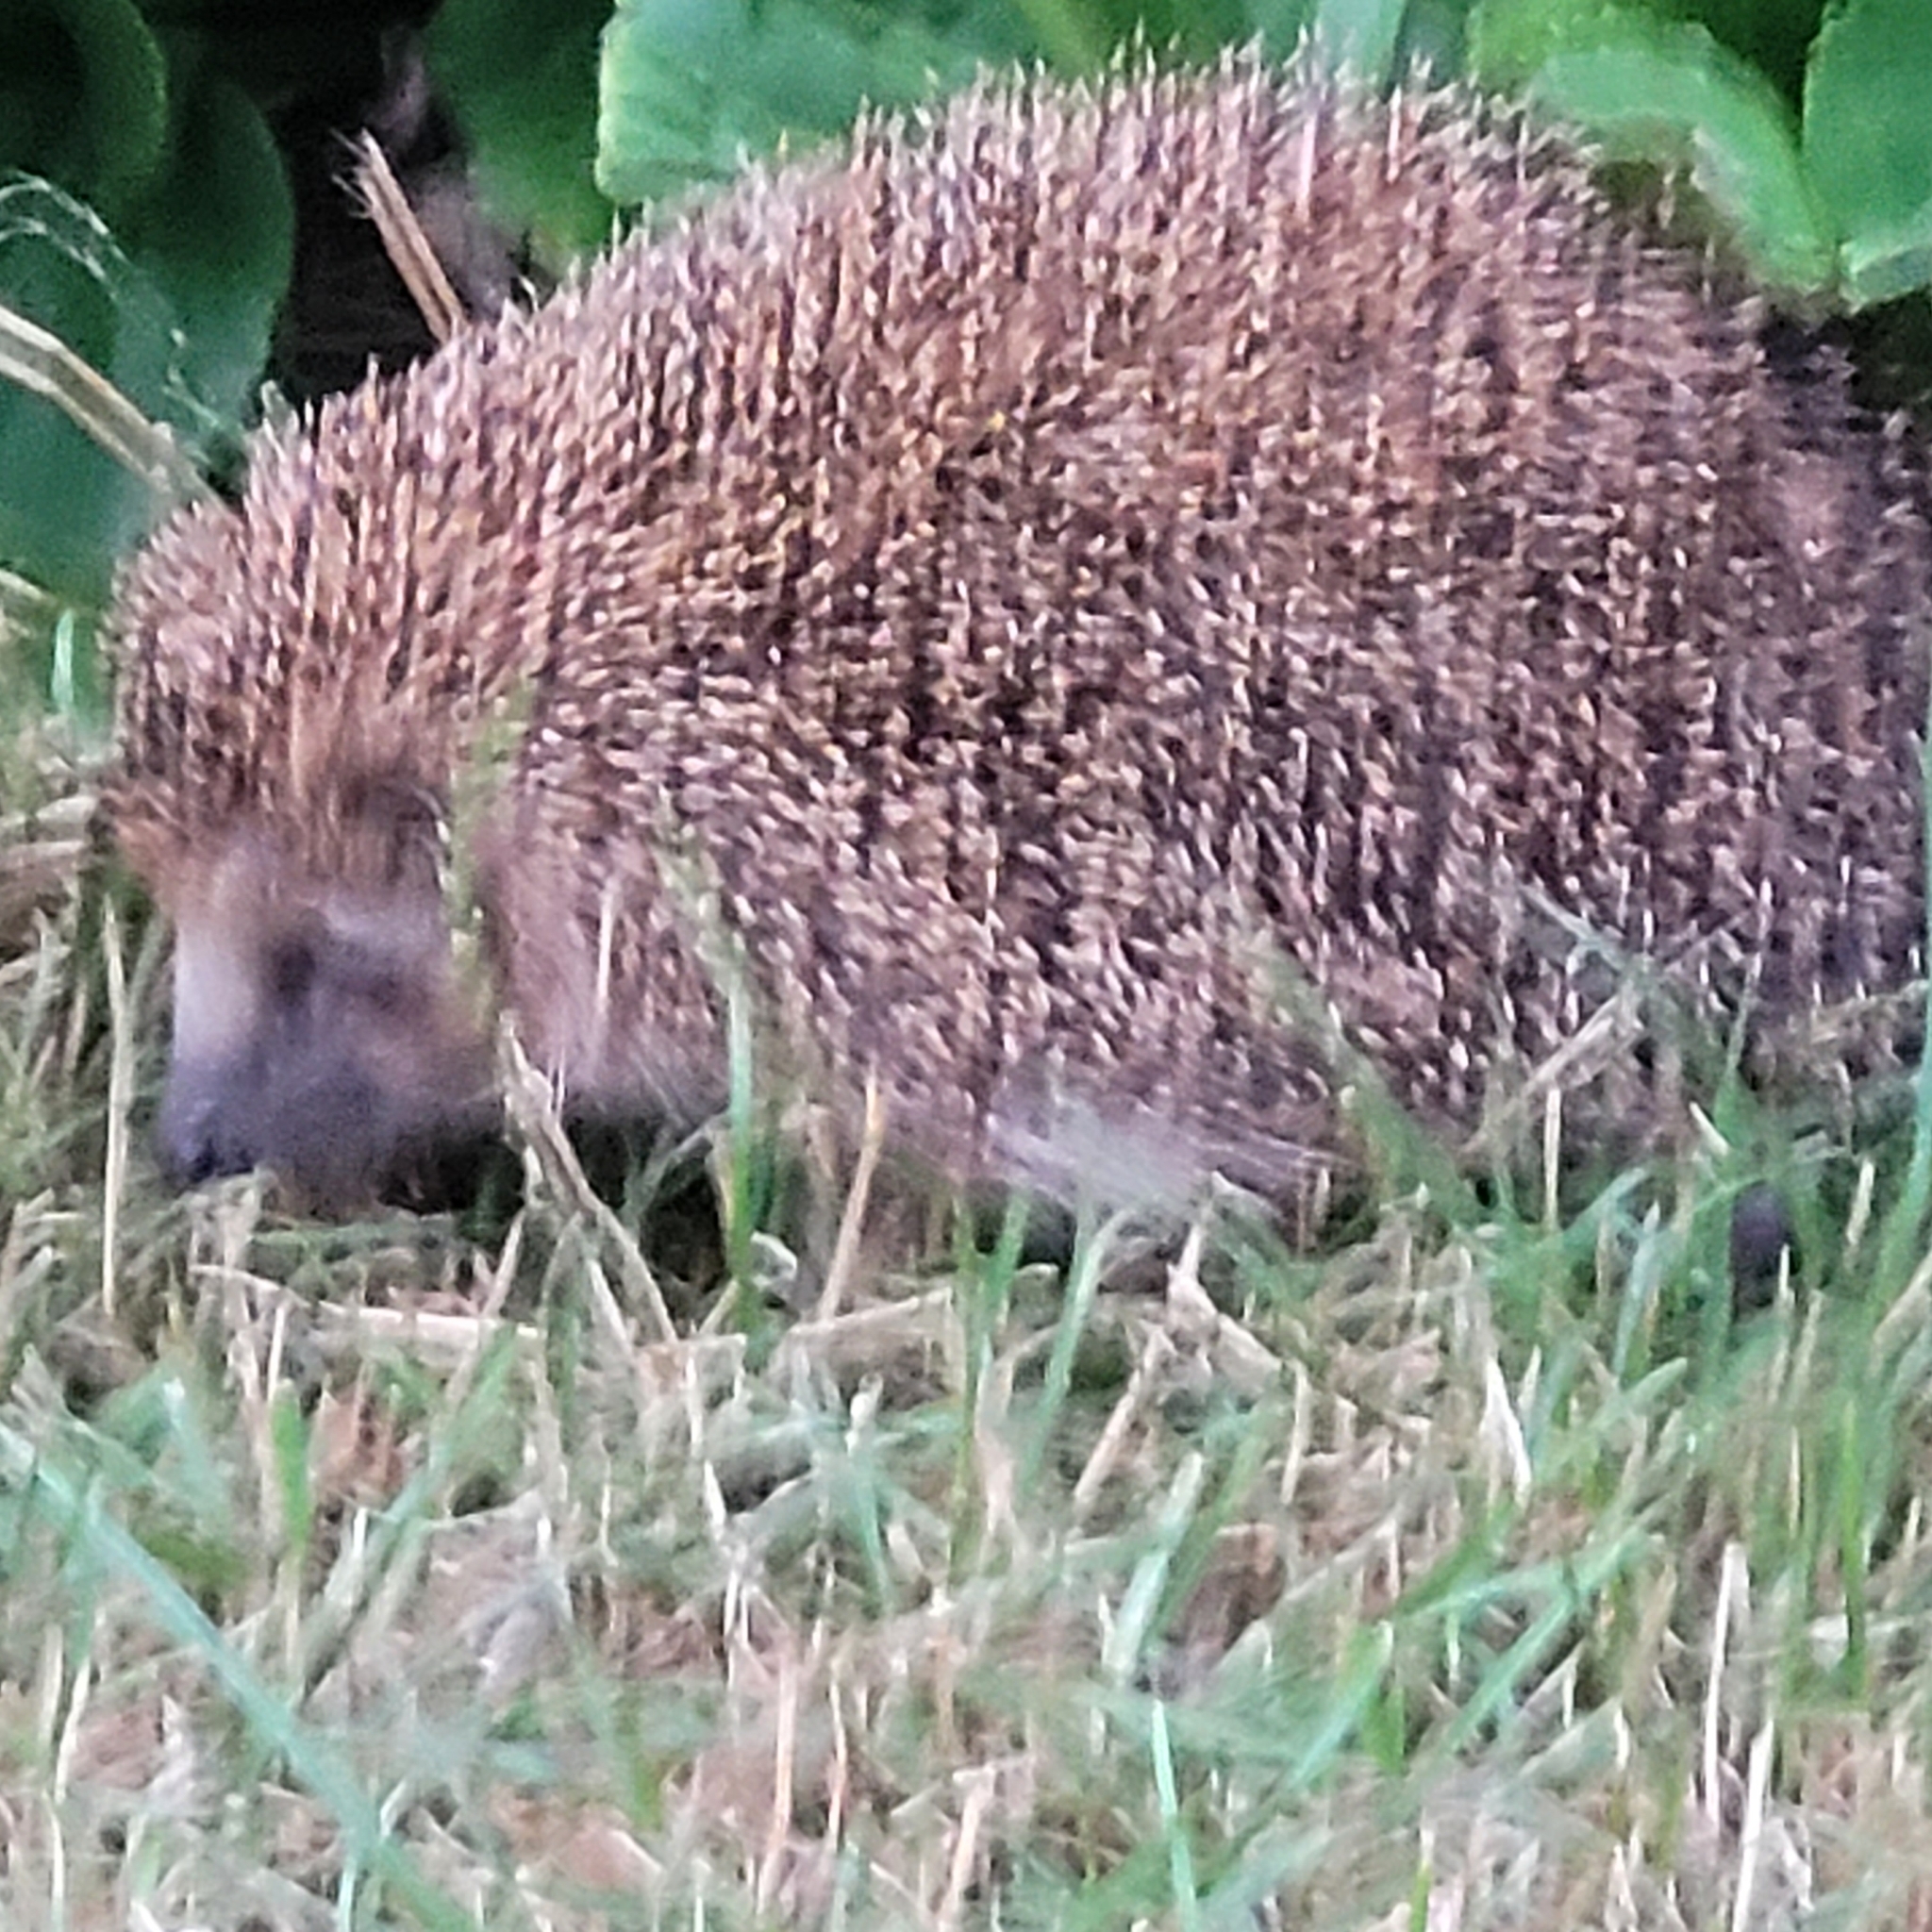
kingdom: Animalia
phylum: Chordata
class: Mammalia
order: Erinaceomorpha
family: Erinaceidae
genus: Erinaceus
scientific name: Erinaceus europaeus
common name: West european hedgehog
